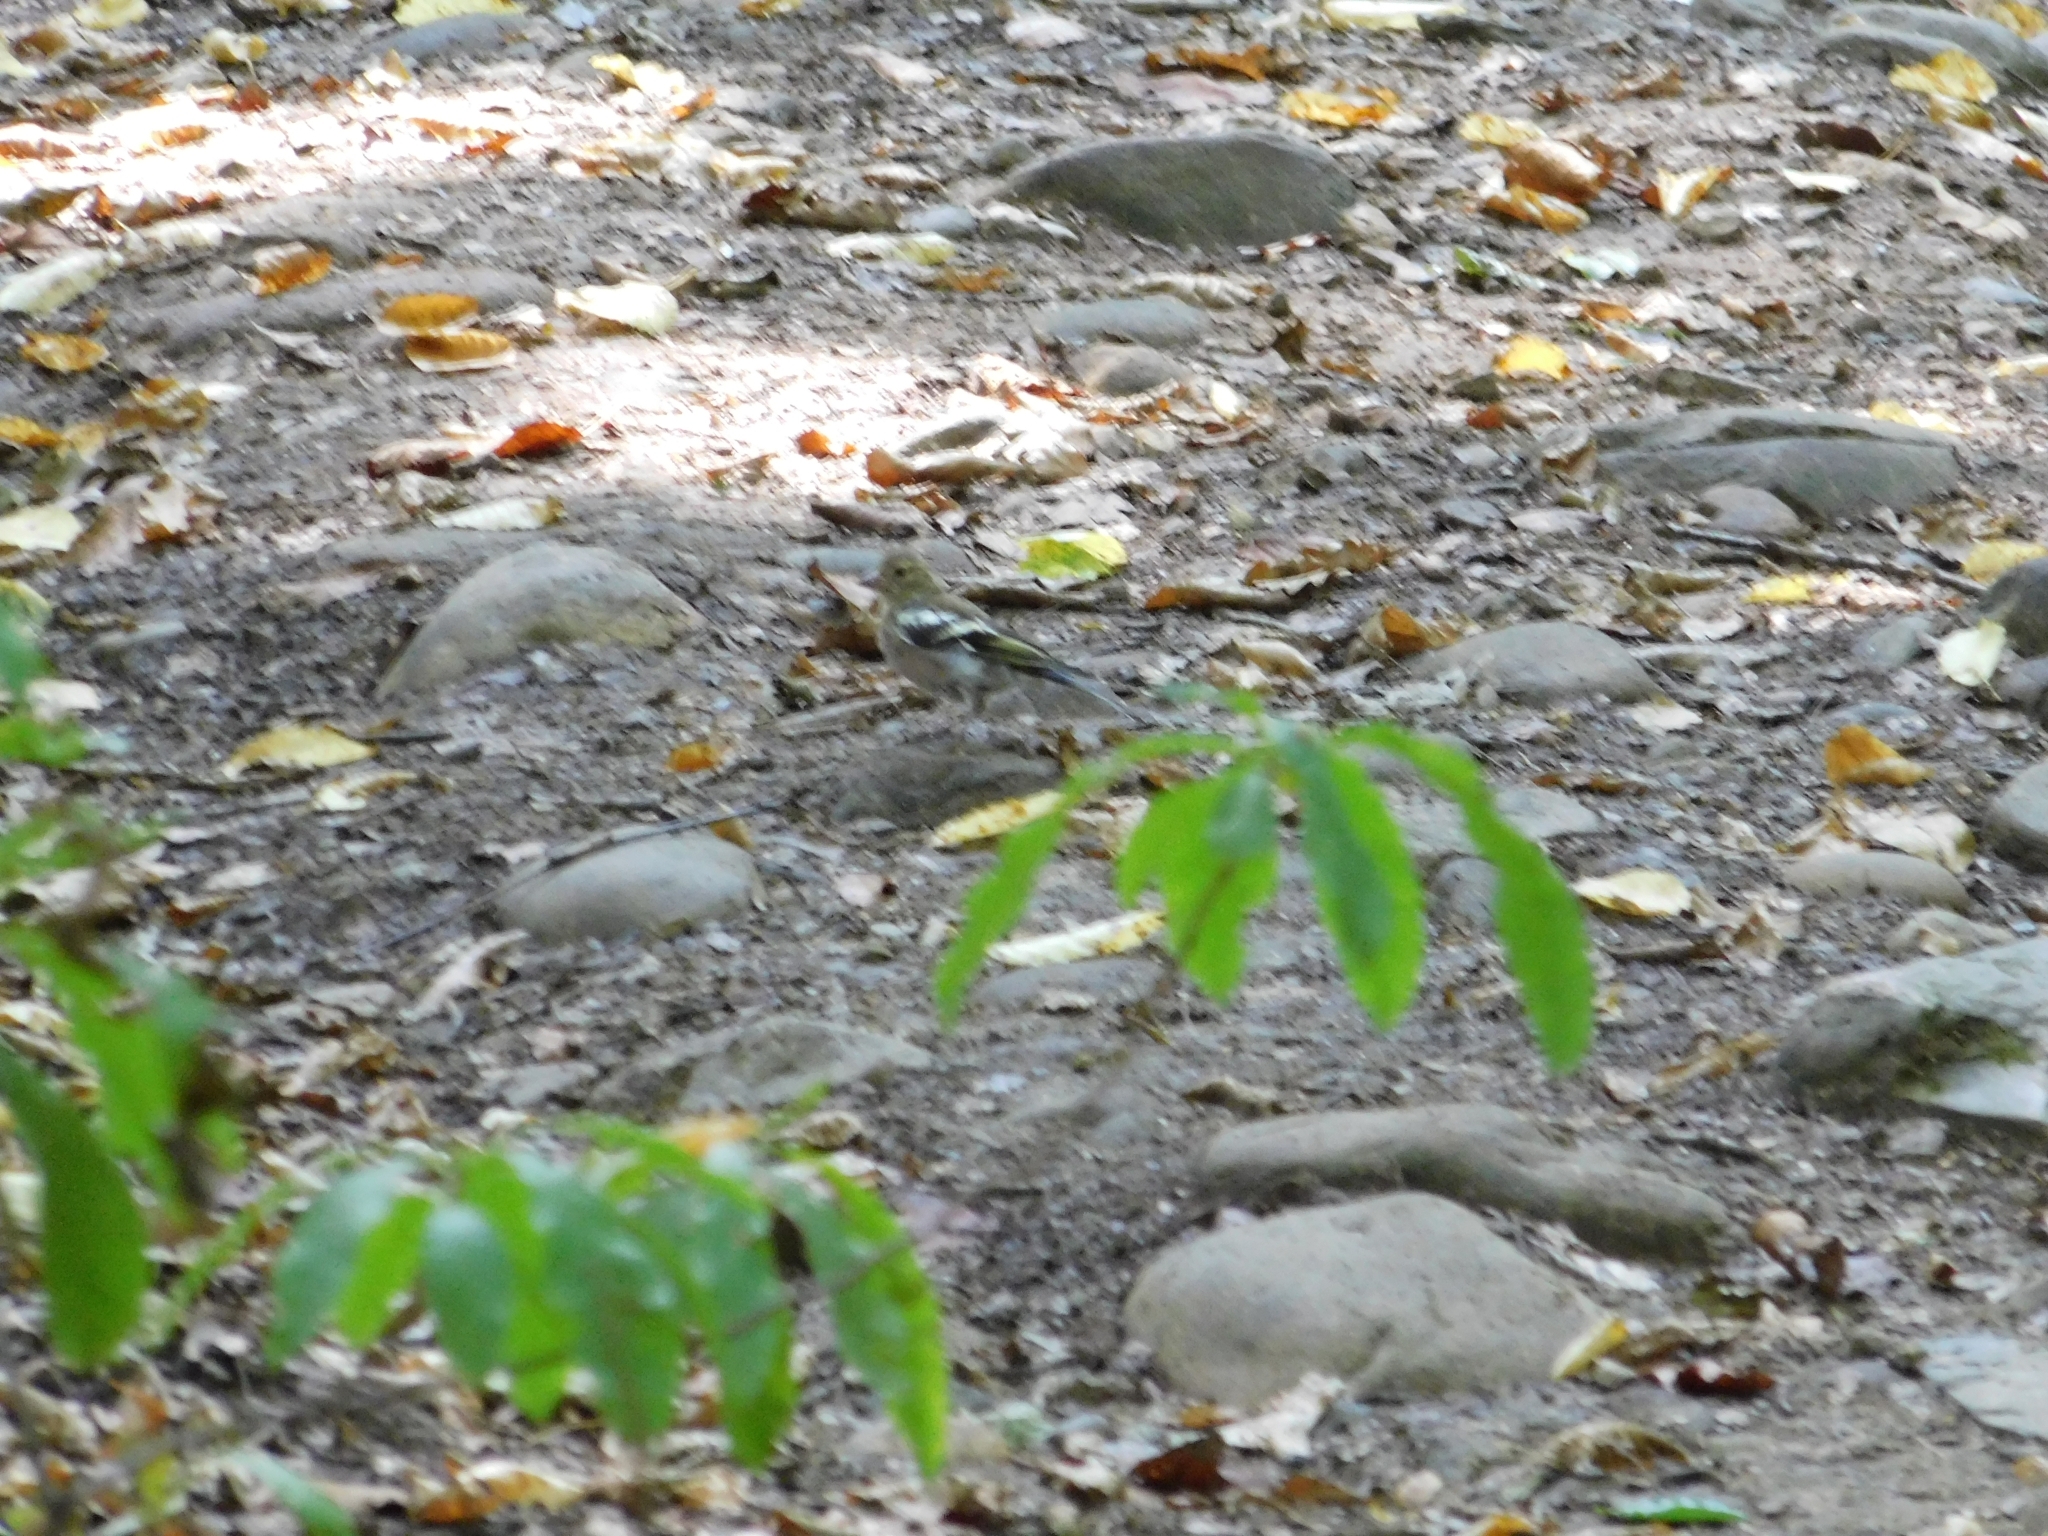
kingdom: Animalia
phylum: Chordata
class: Aves
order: Passeriformes
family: Fringillidae
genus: Fringilla
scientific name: Fringilla coelebs
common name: Common chaffinch
